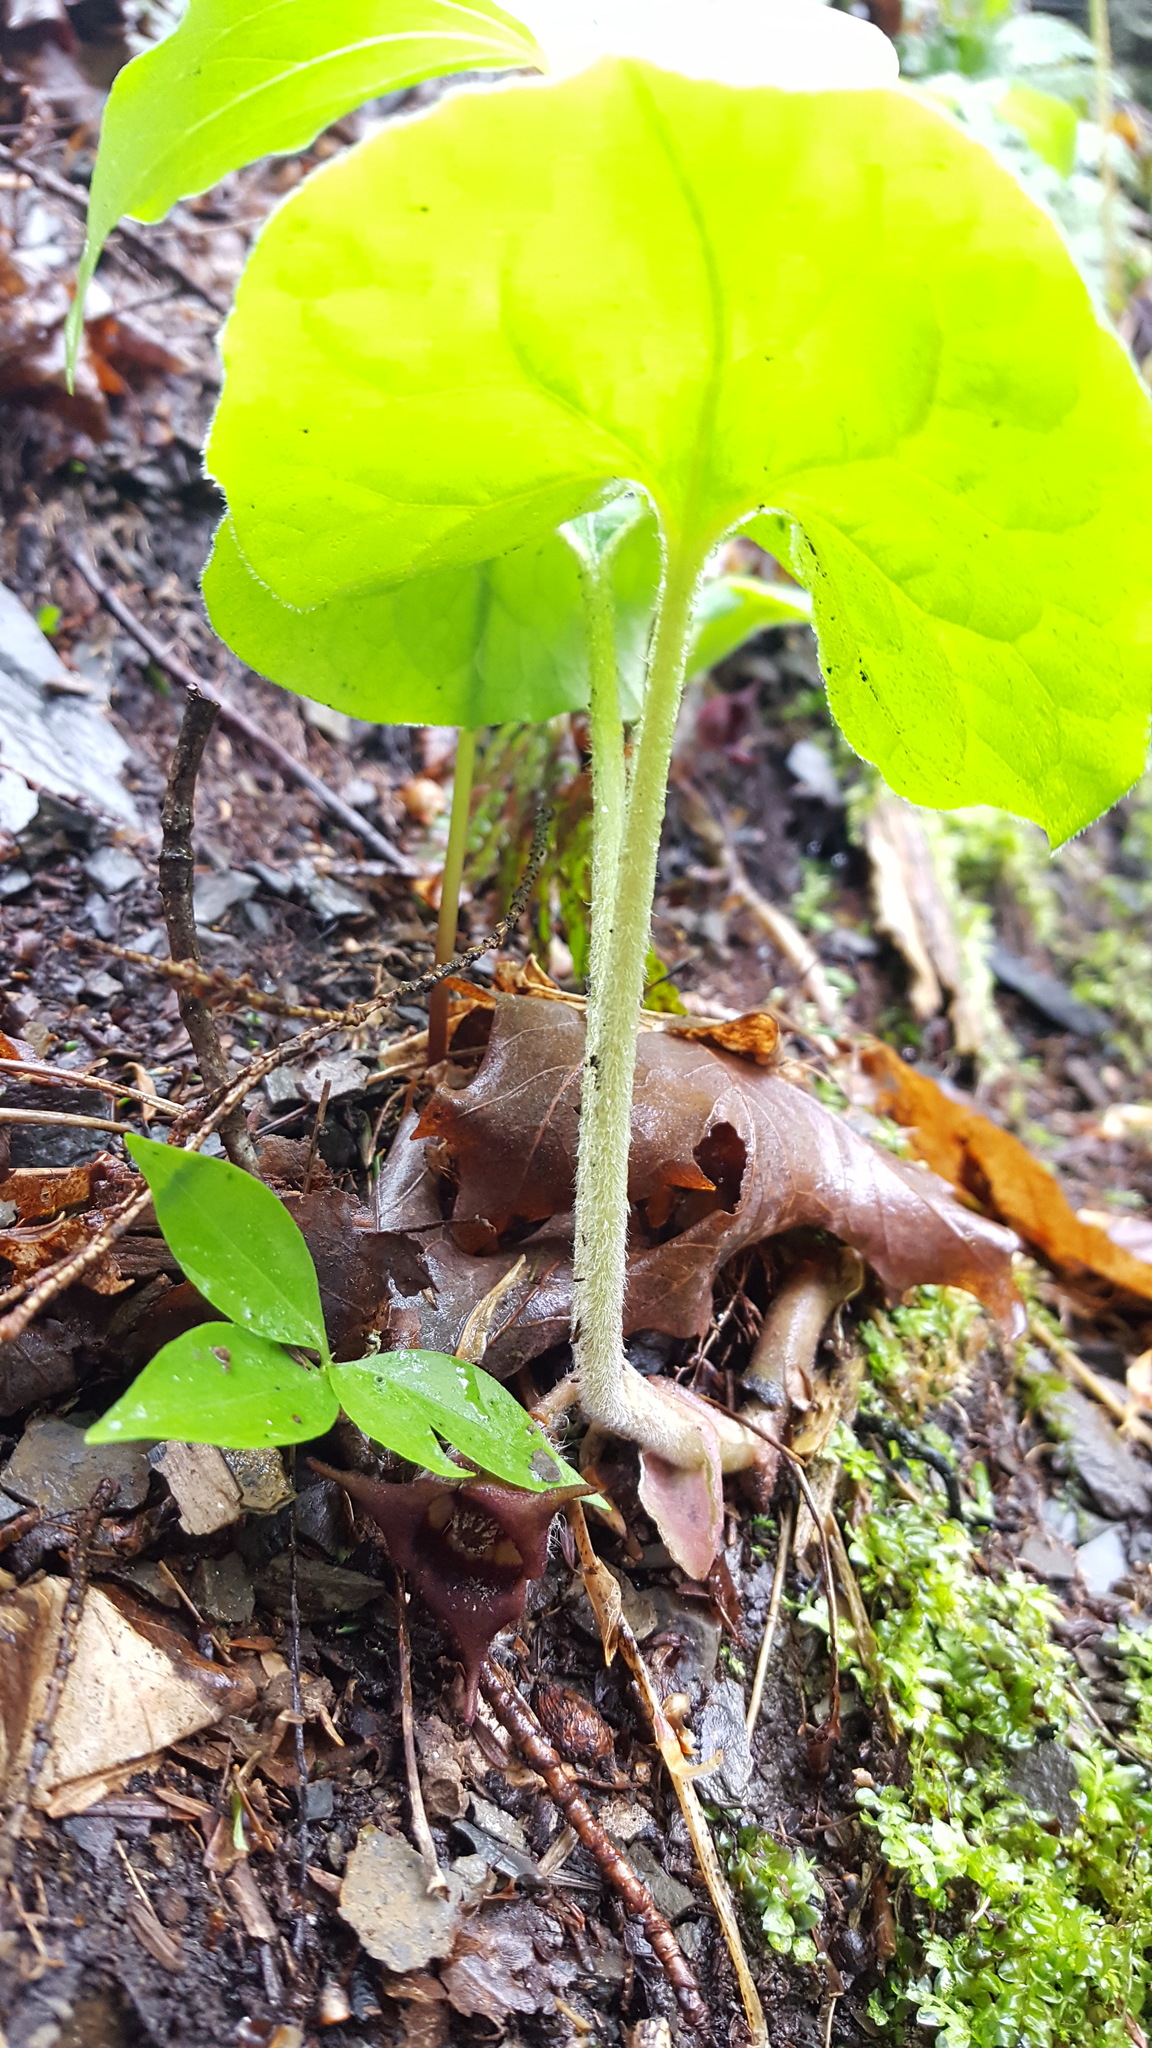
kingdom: Plantae
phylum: Tracheophyta
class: Magnoliopsida
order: Piperales
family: Aristolochiaceae
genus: Asarum
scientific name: Asarum canadense
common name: Wild ginger
